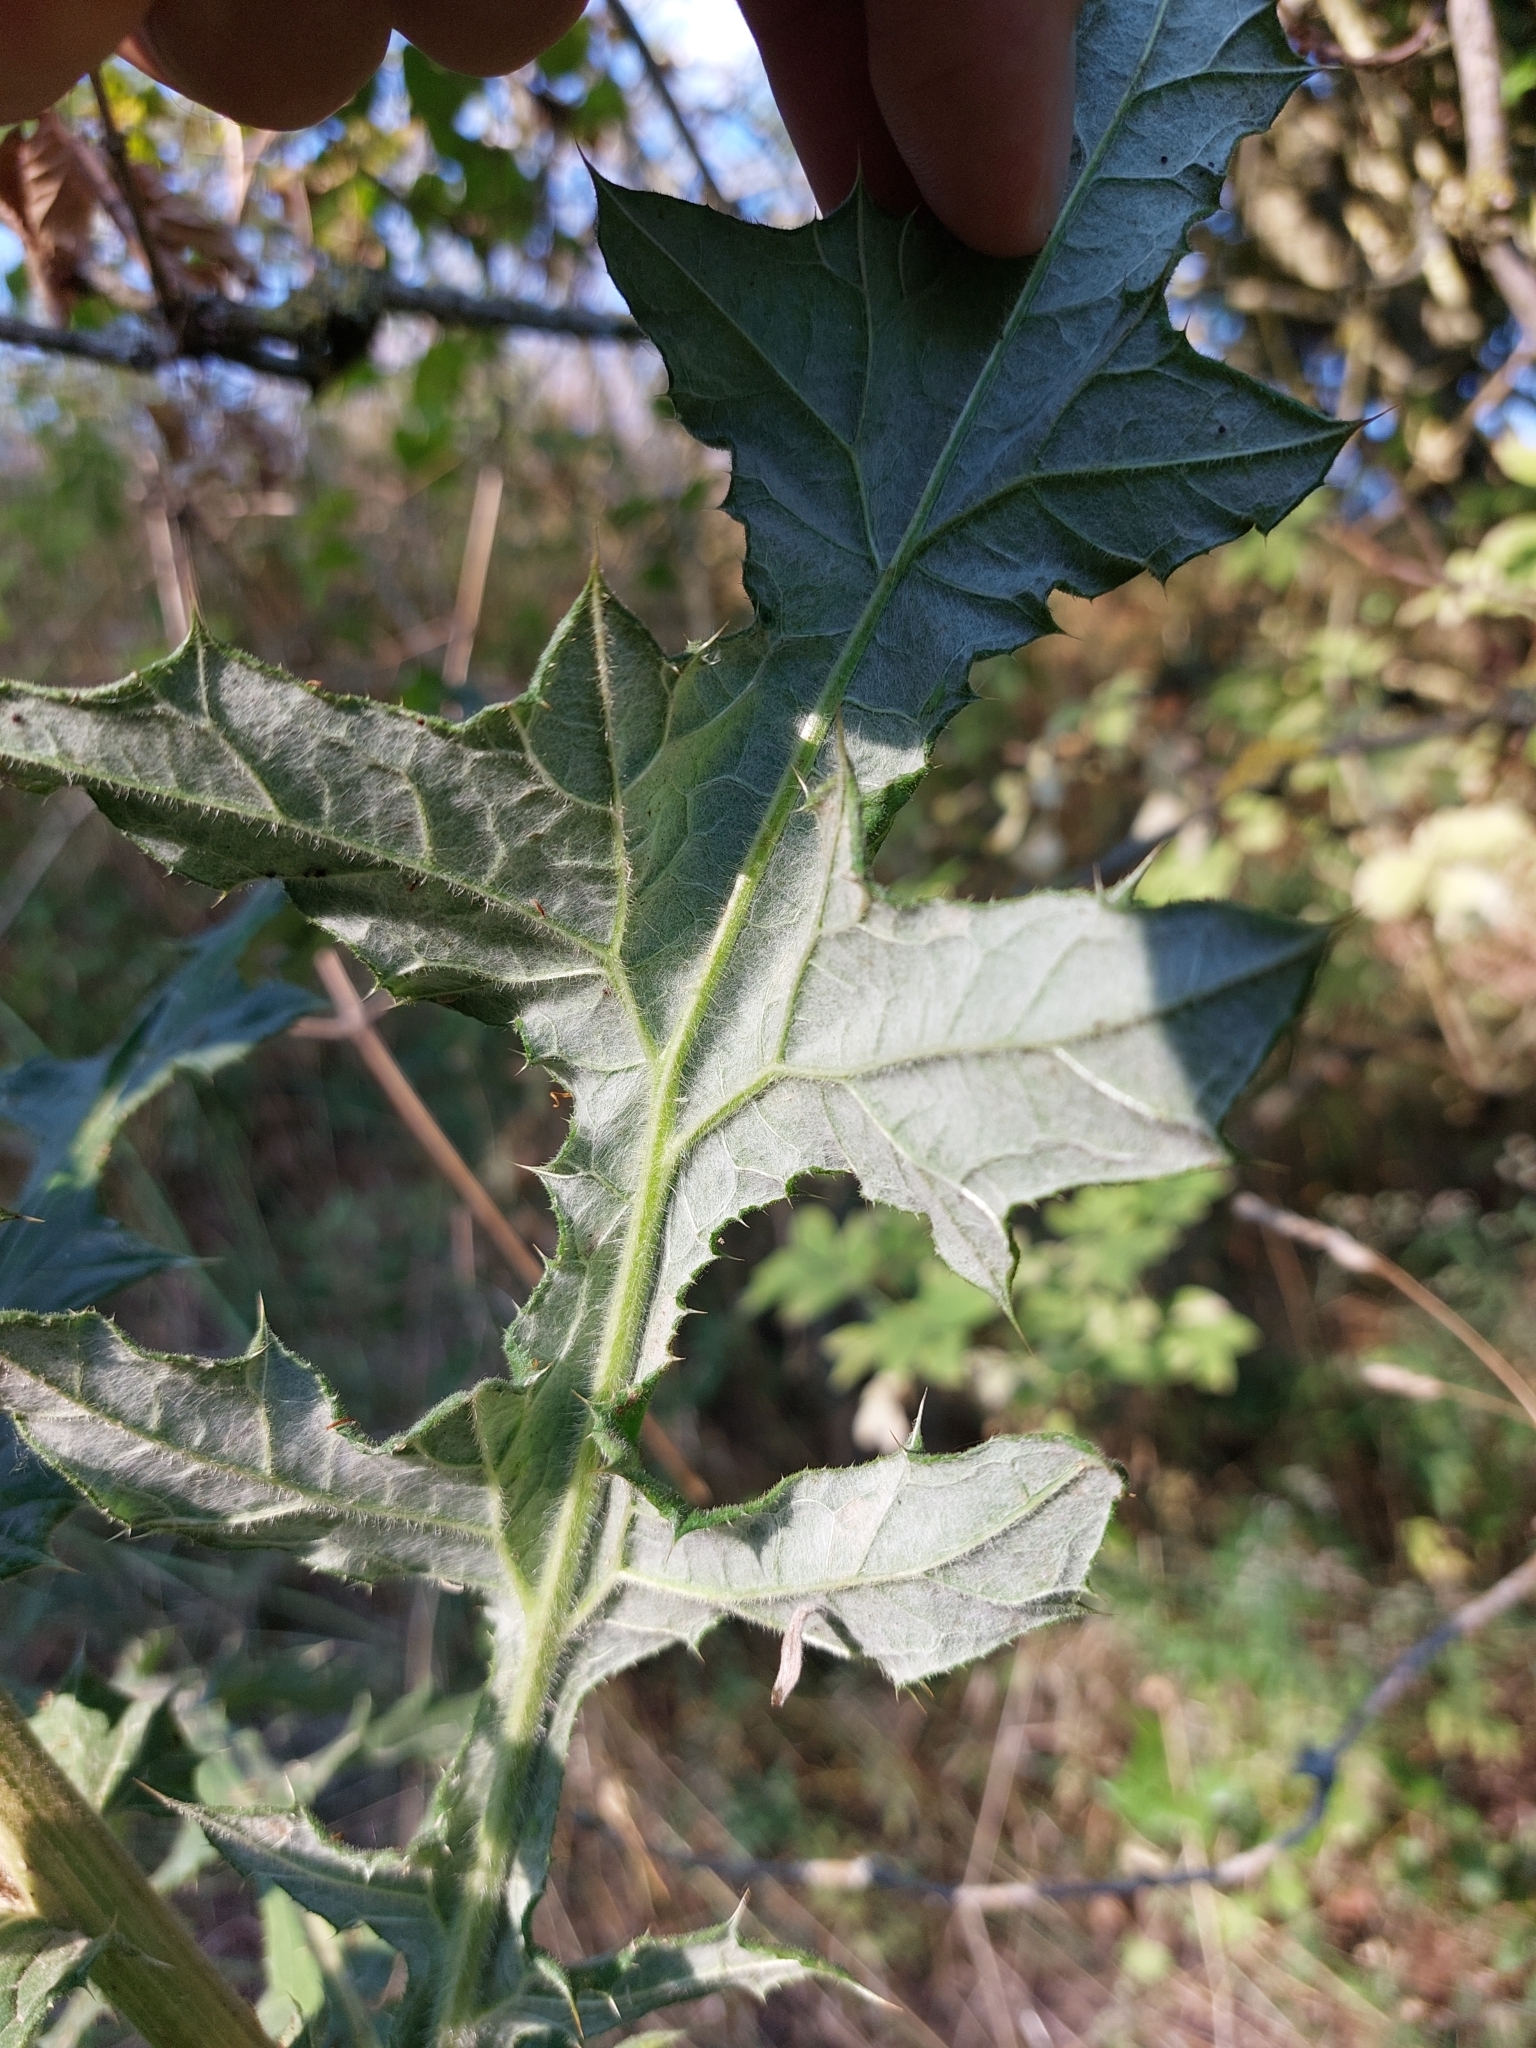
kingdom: Plantae
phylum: Tracheophyta
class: Magnoliopsida
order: Asterales
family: Asteraceae
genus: Echinops
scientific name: Echinops sphaerocephalus
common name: Glandular globe-thistle
